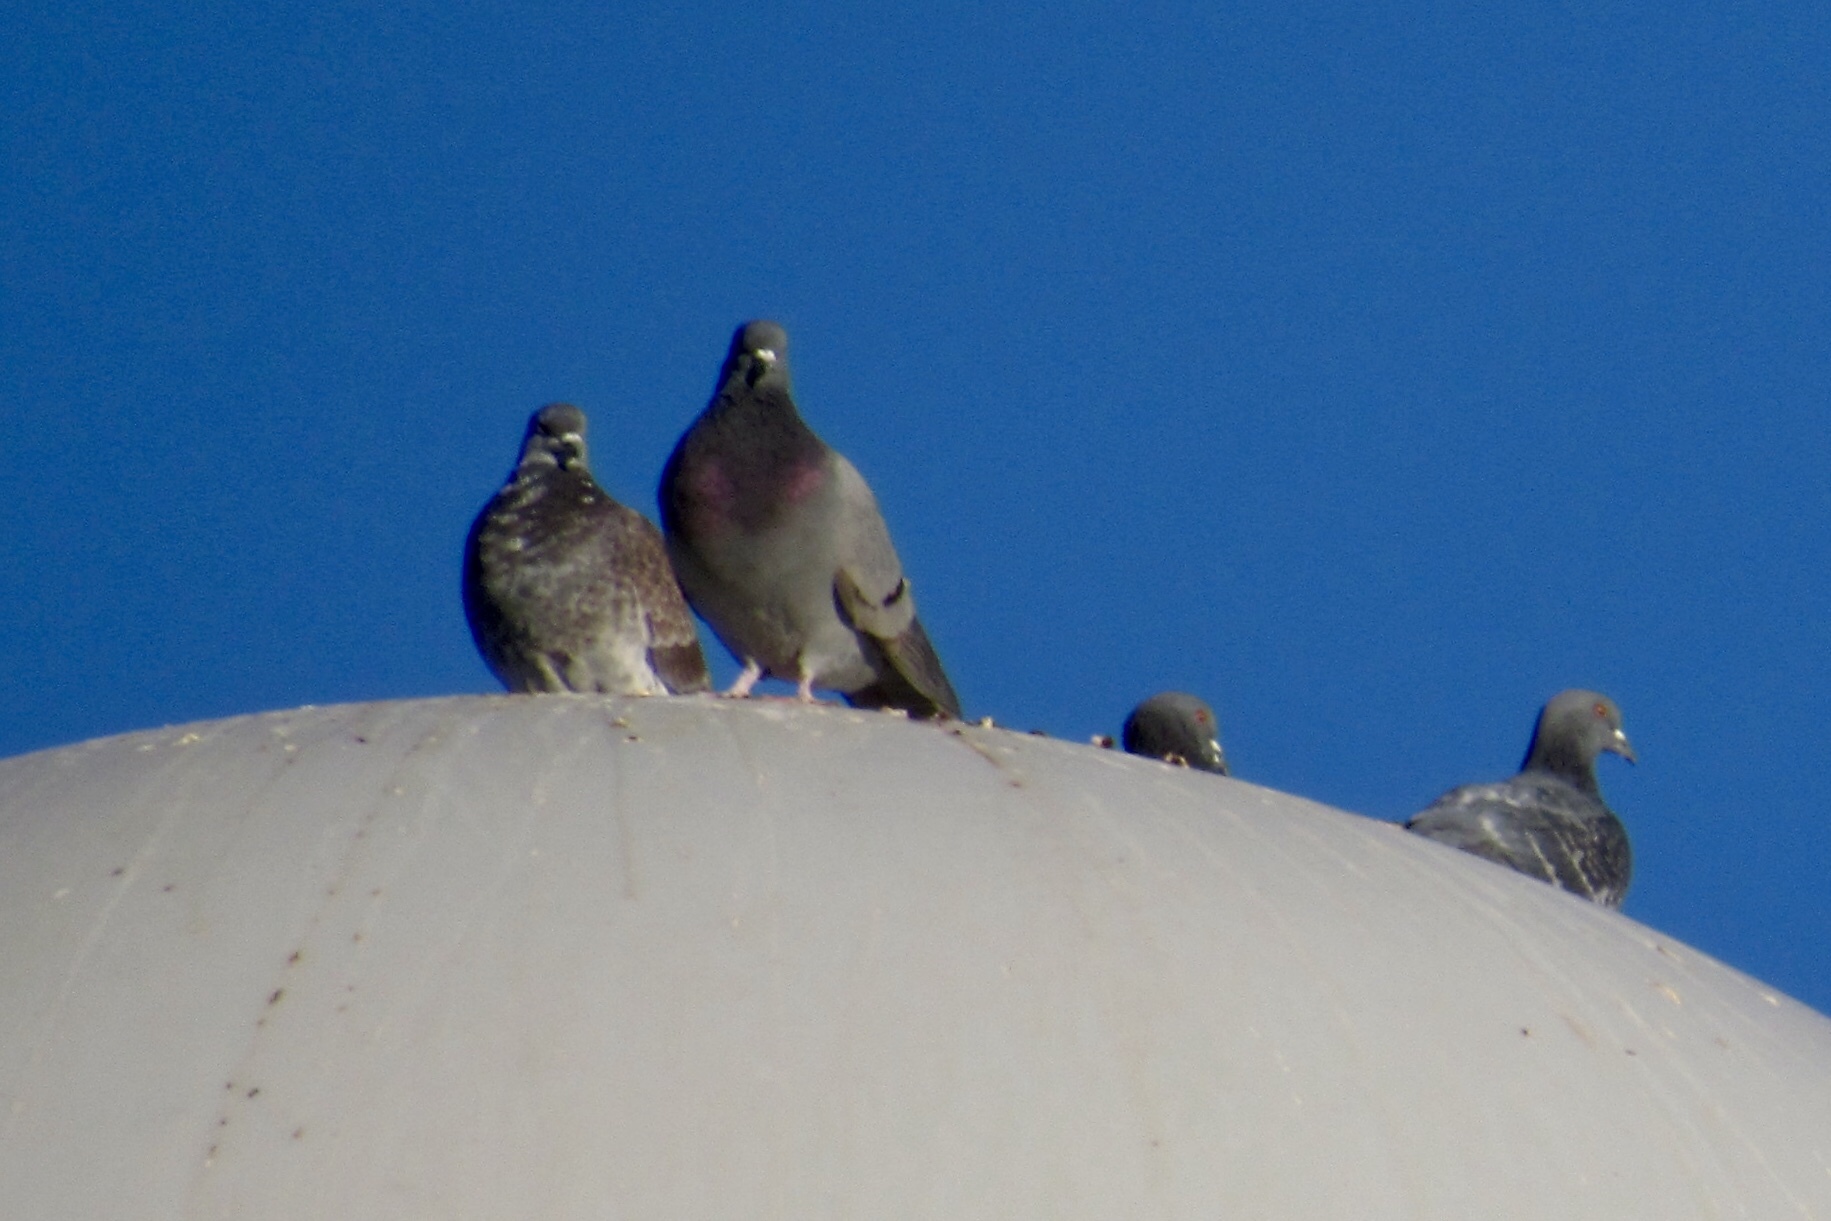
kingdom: Animalia
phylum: Chordata
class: Aves
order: Columbiformes
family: Columbidae
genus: Columba
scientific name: Columba livia
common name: Rock pigeon
